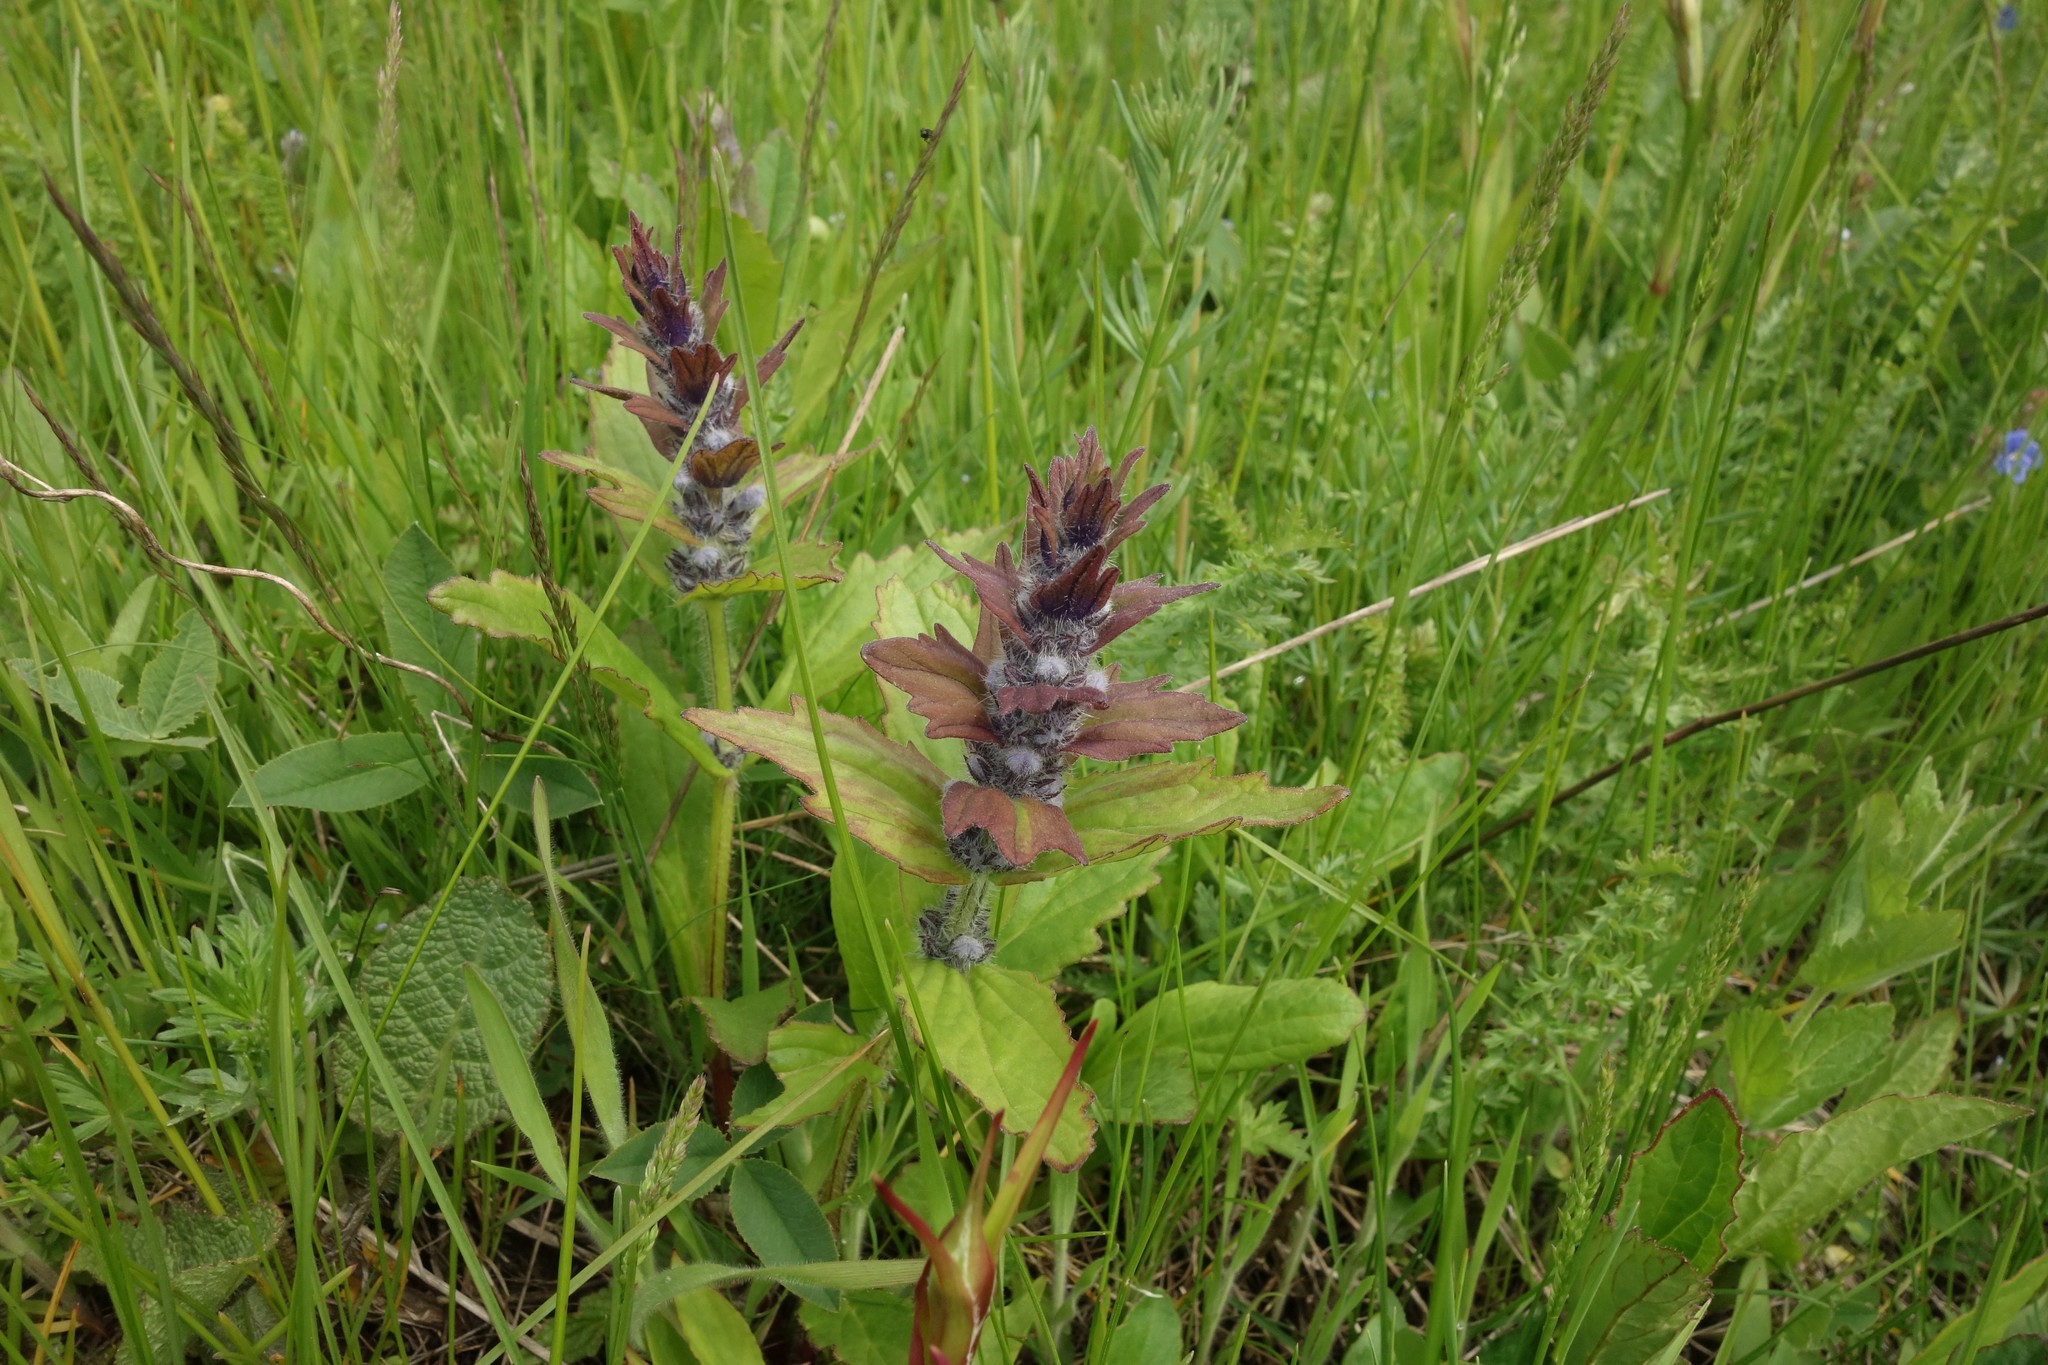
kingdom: Plantae
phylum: Tracheophyta
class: Magnoliopsida
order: Lamiales
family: Lamiaceae
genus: Ajuga
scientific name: Ajuga genevensis
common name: Blue bugle
